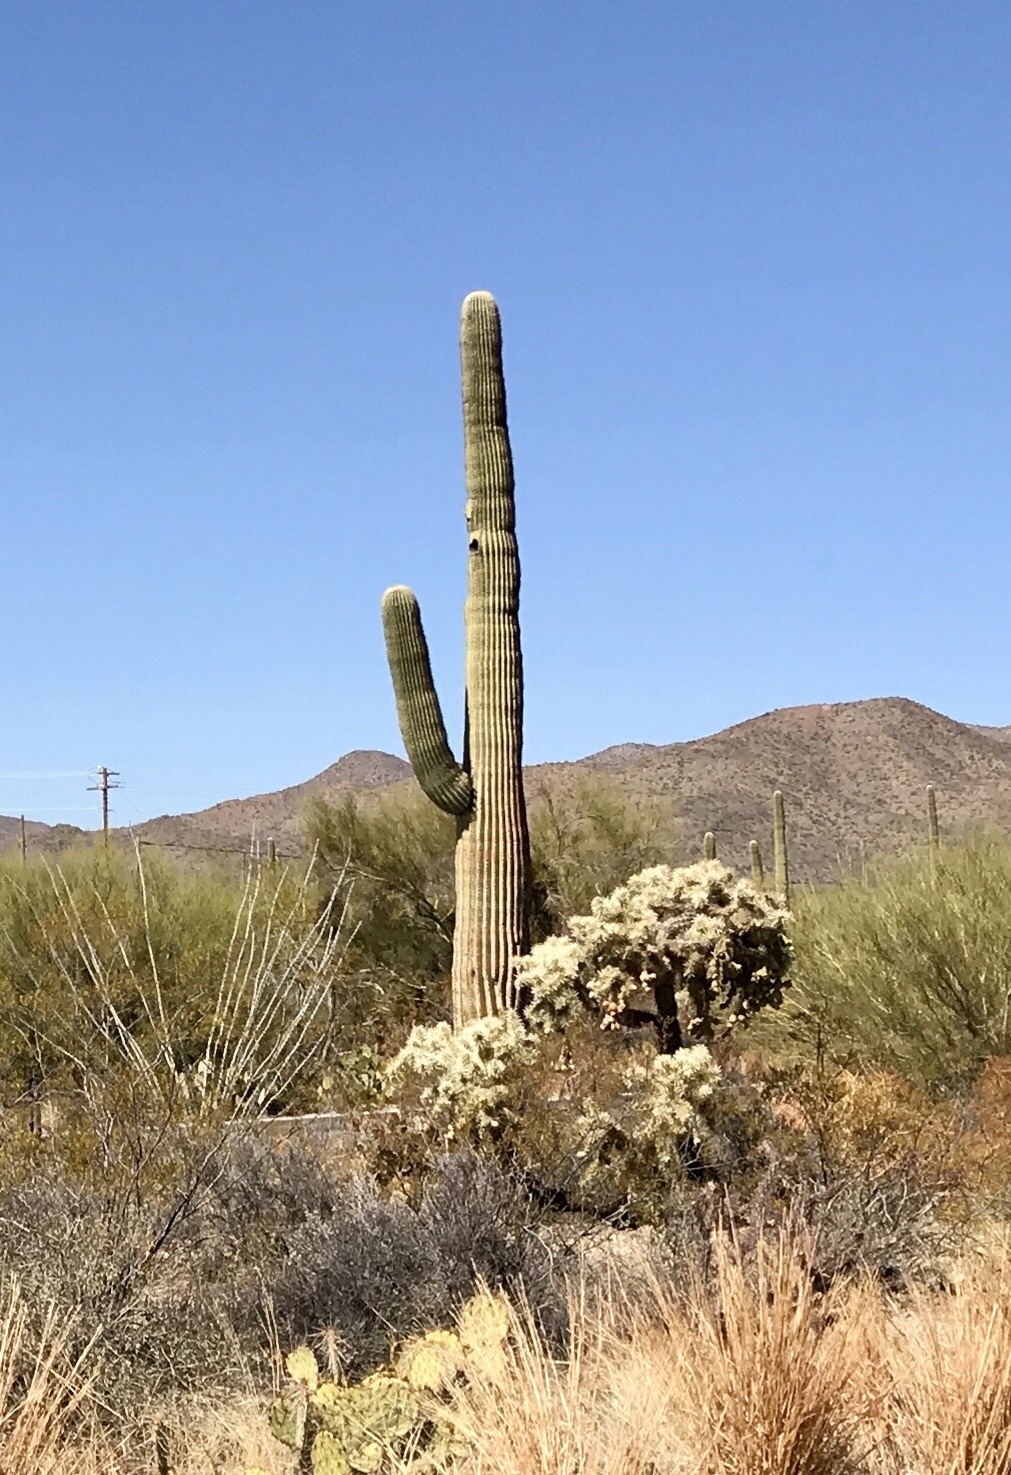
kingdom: Plantae
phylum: Tracheophyta
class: Magnoliopsida
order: Caryophyllales
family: Cactaceae
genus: Carnegiea
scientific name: Carnegiea gigantea
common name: Saguaro
